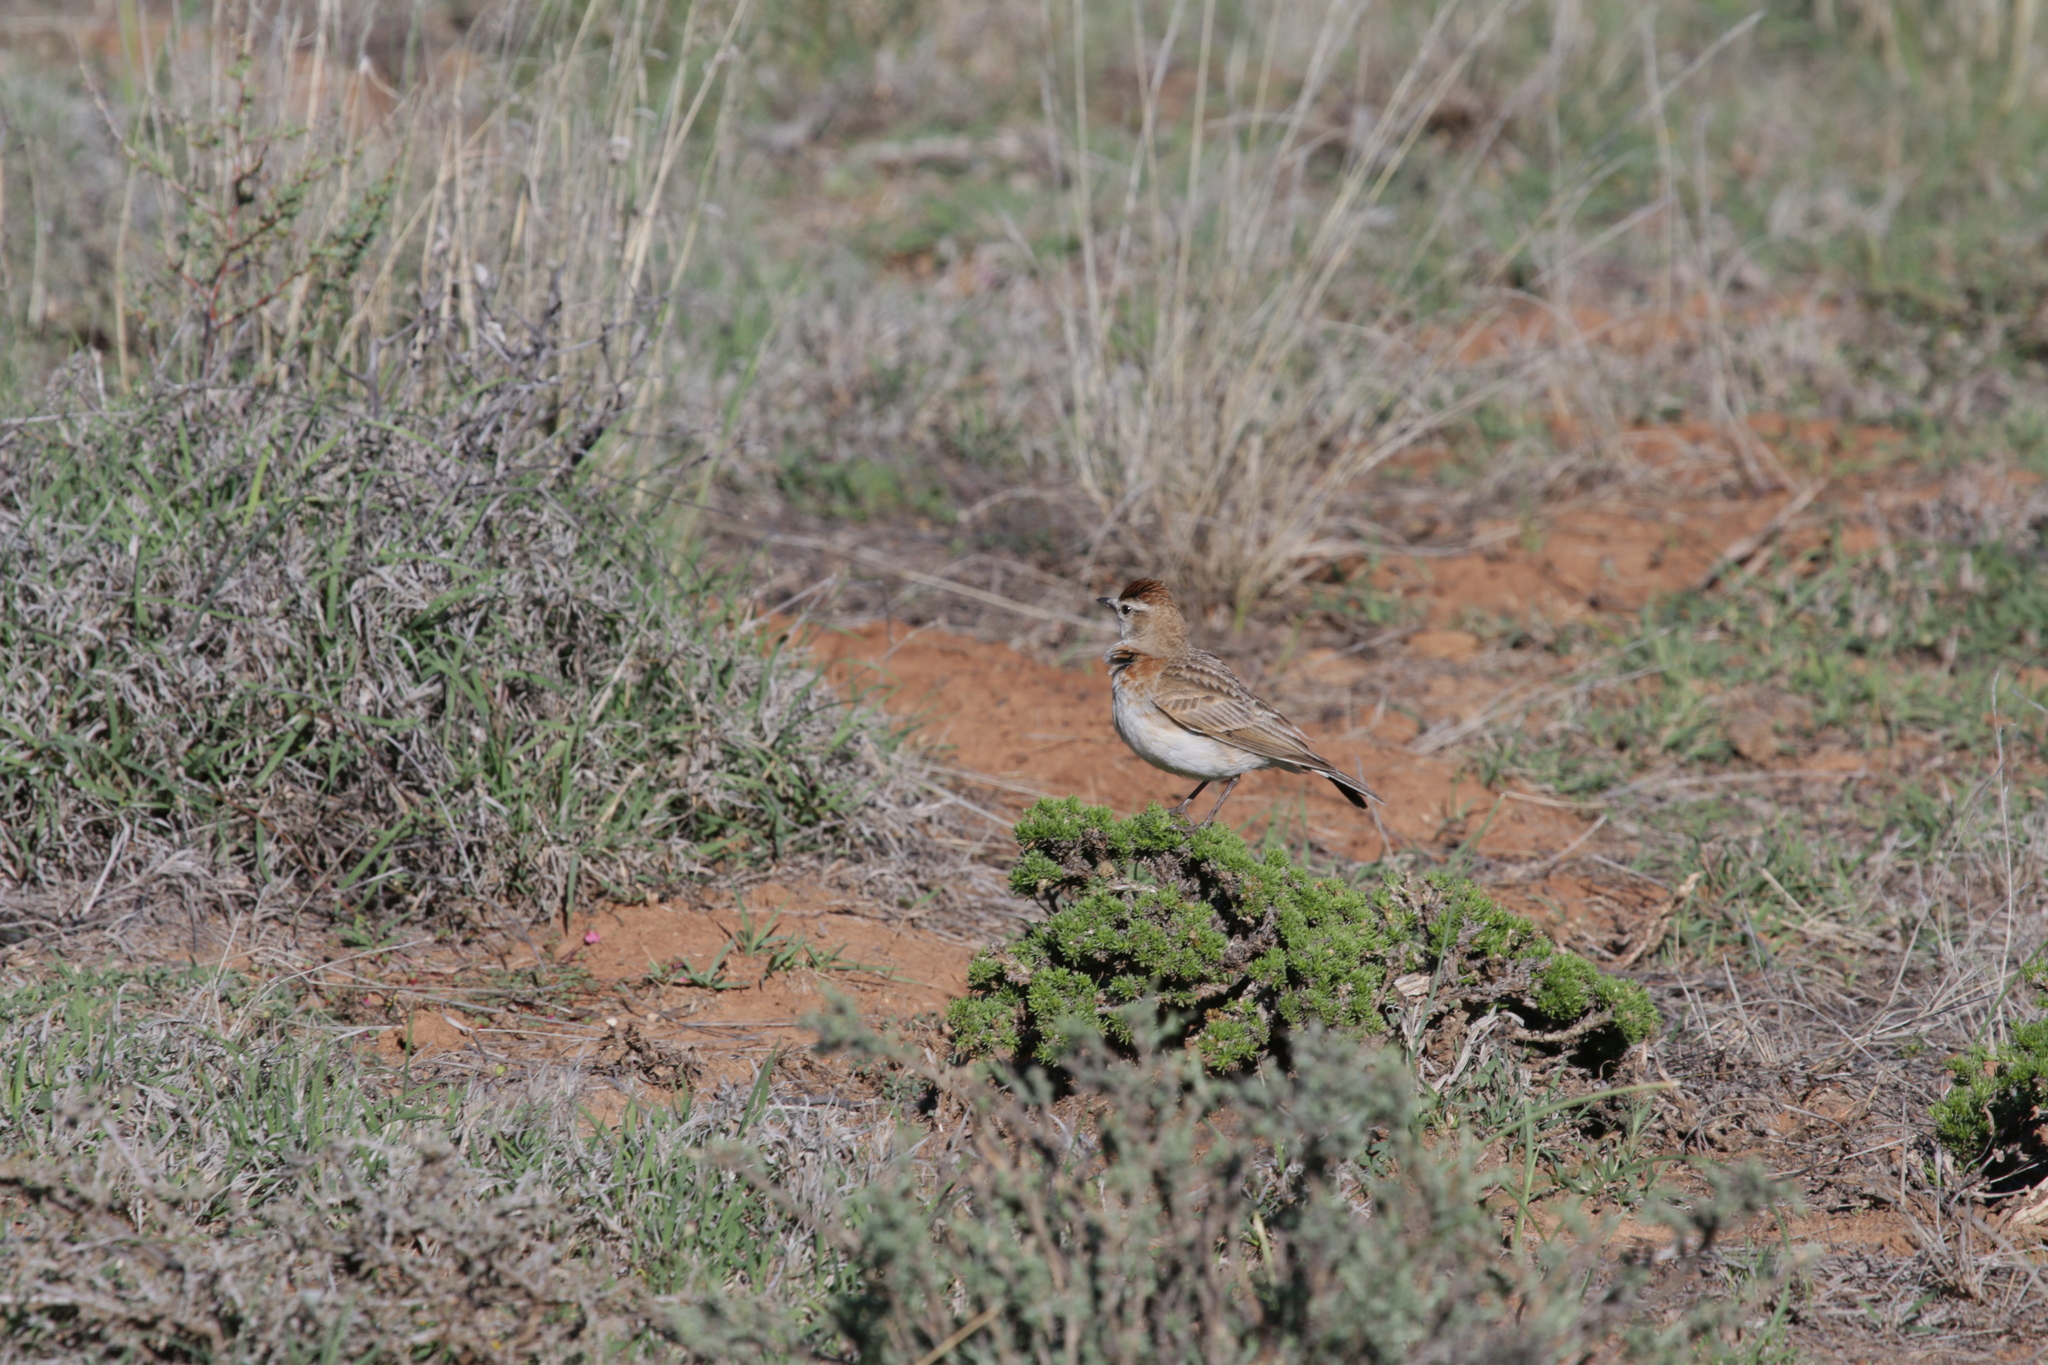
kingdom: Animalia
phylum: Chordata
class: Aves
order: Passeriformes
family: Alaudidae
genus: Calandrella
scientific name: Calandrella cinerea
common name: Red-capped lark
